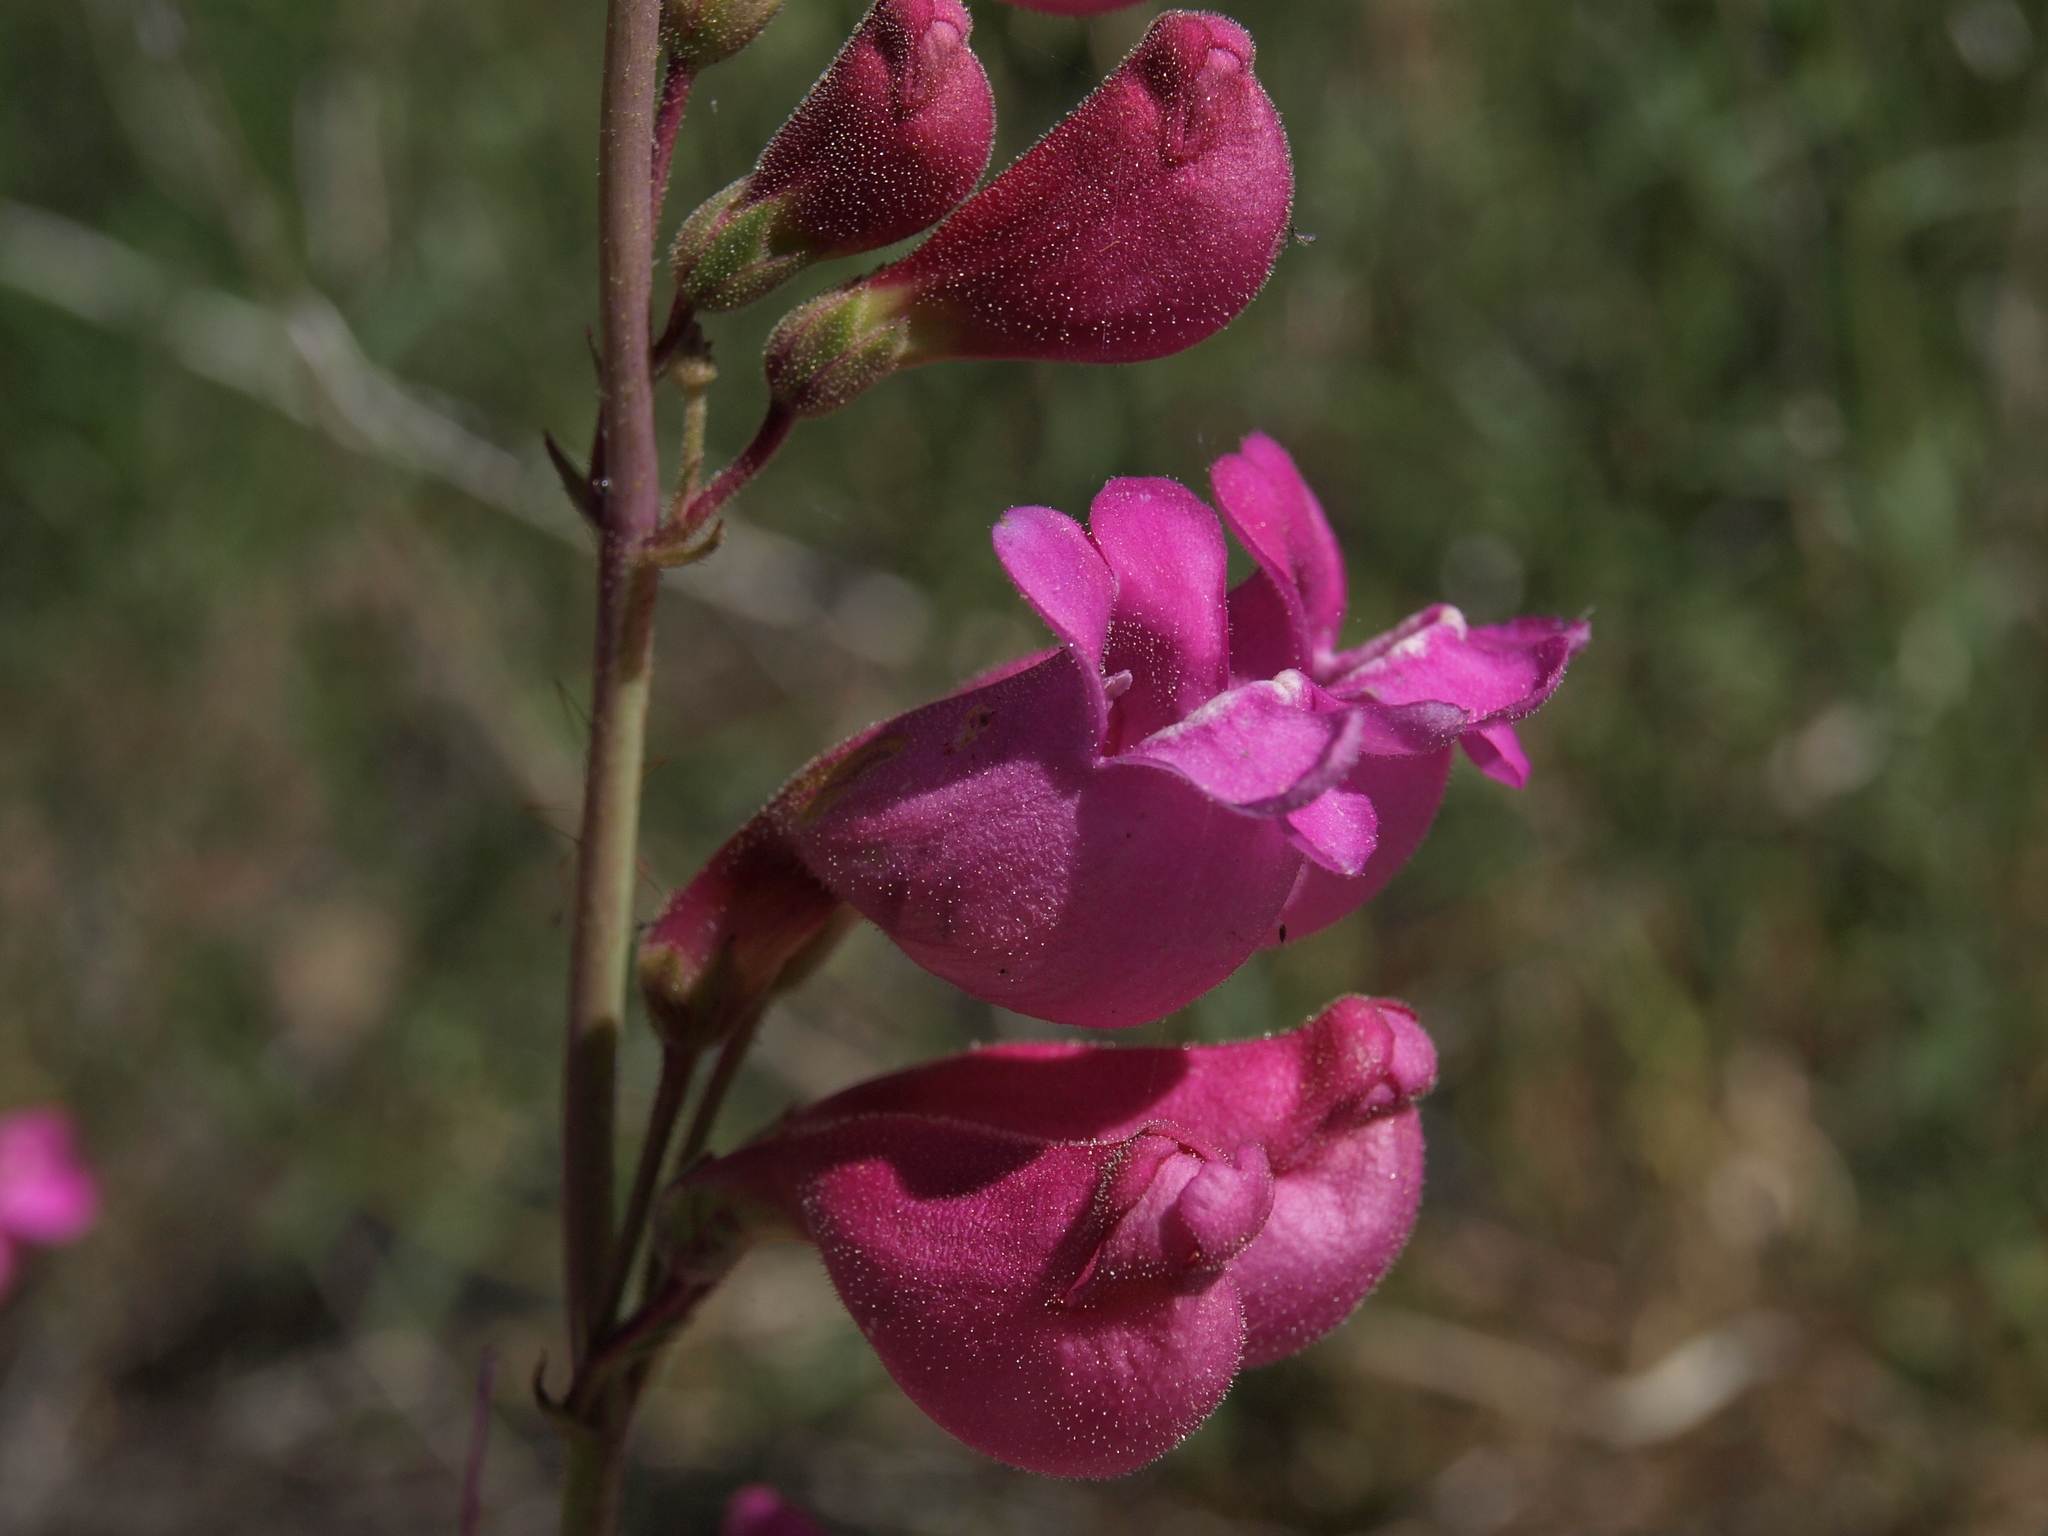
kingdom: Plantae
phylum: Tracheophyta
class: Magnoliopsida
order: Lamiales
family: Plantaginaceae
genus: Penstemon
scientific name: Penstemon floridus
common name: Panamint penstemon
